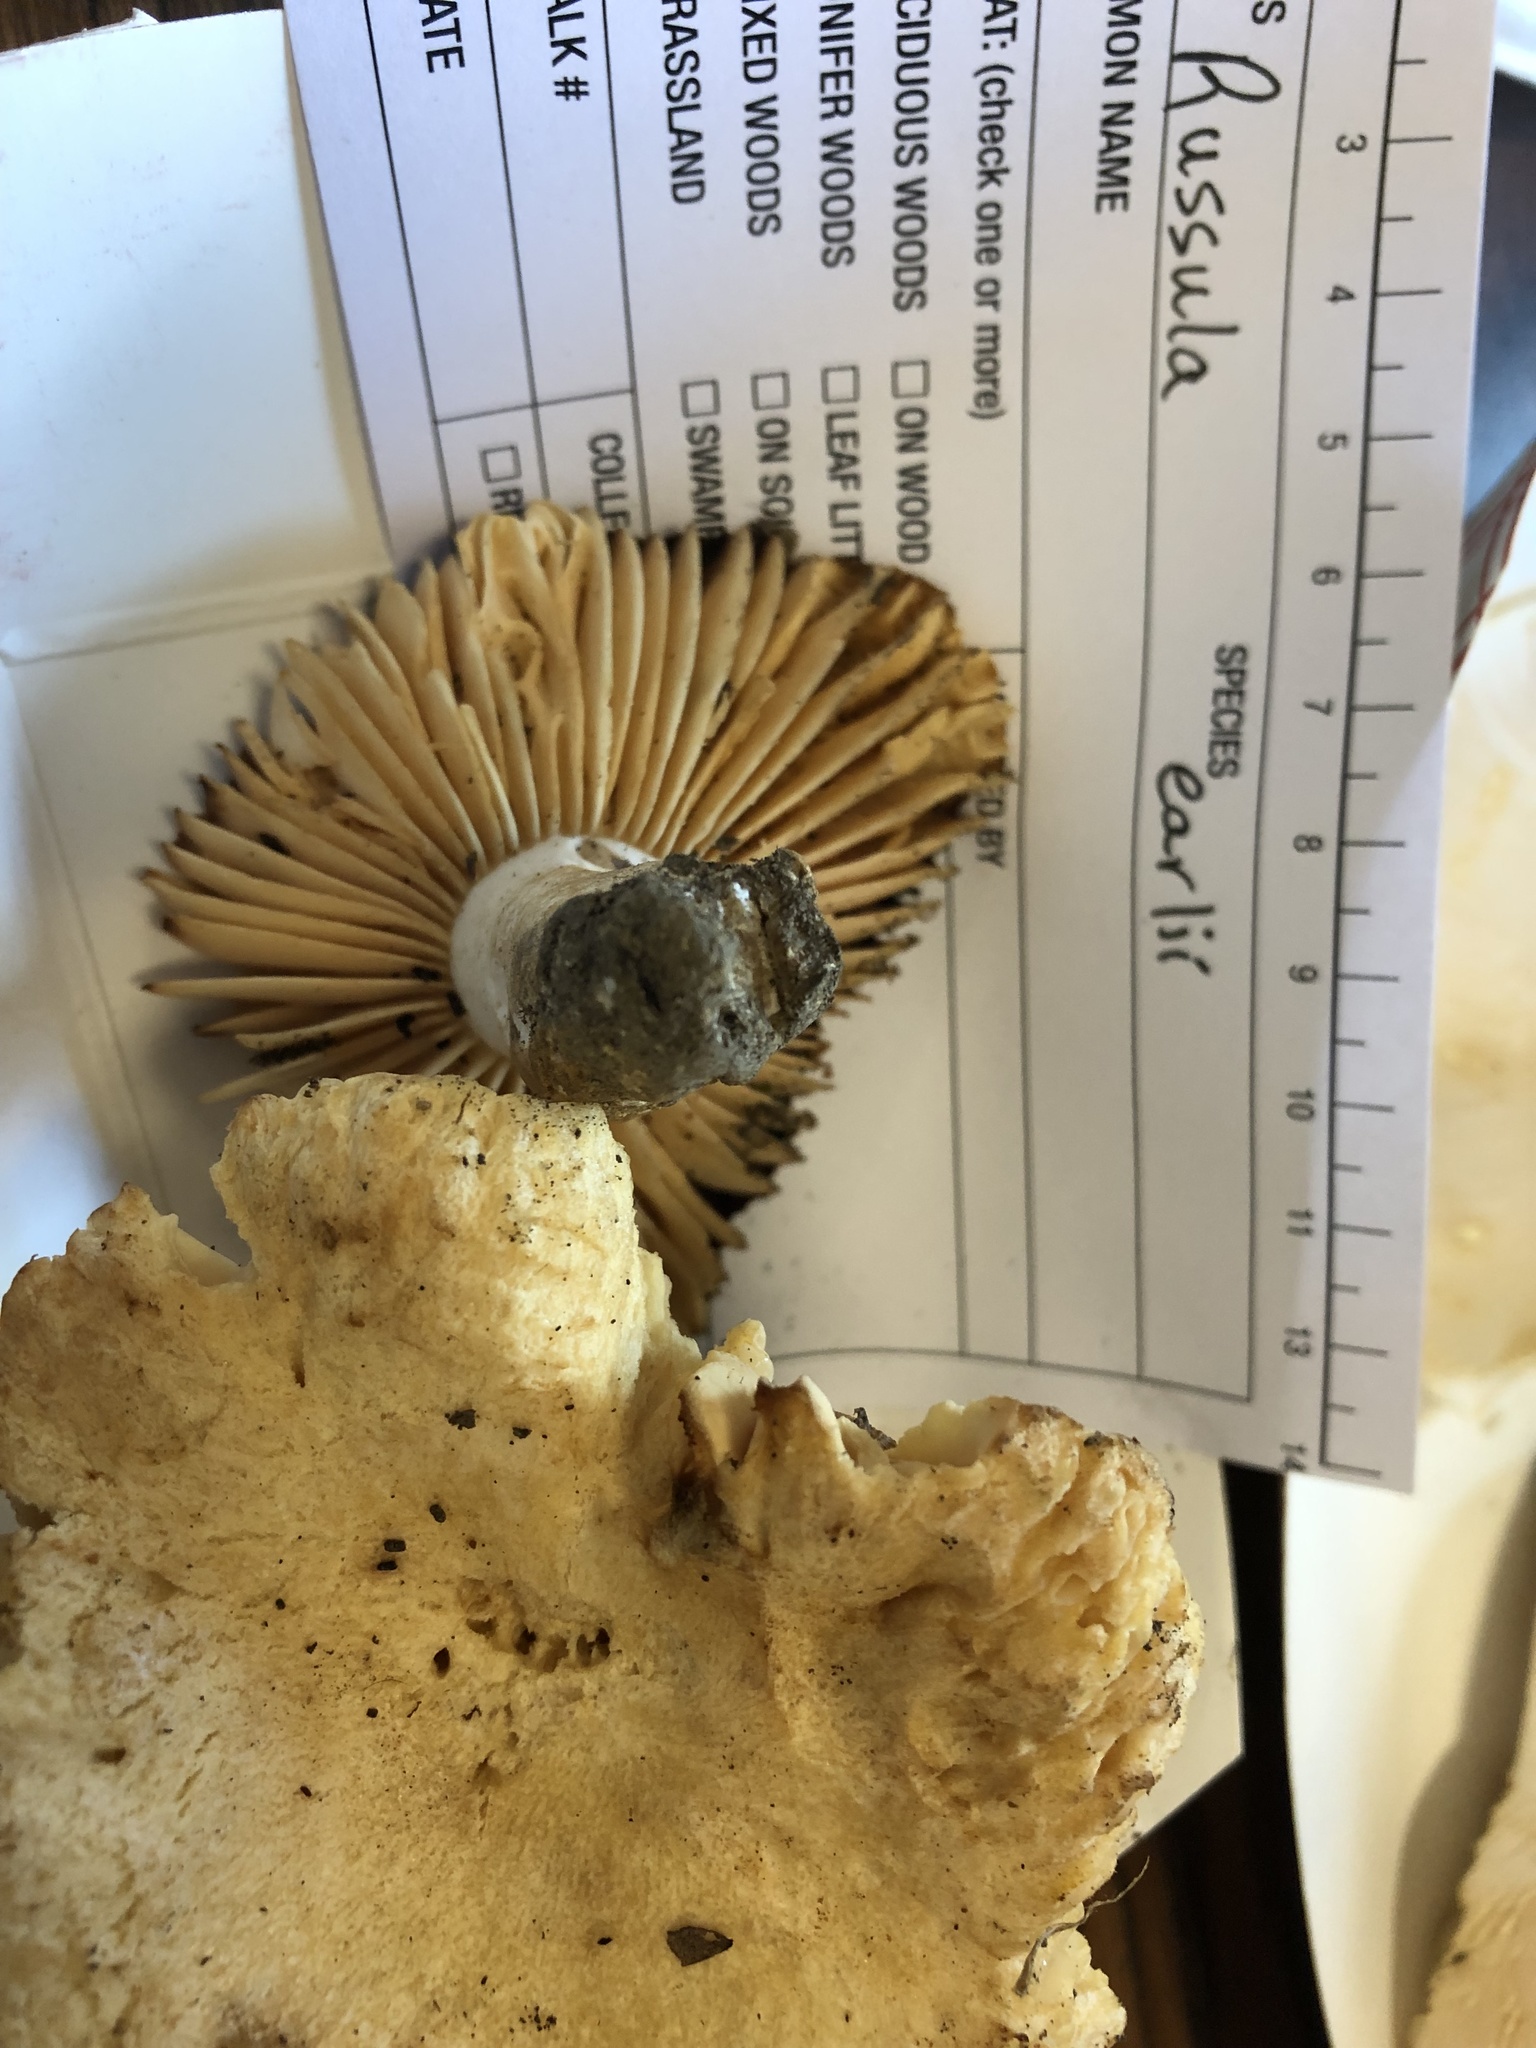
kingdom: Fungi
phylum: Basidiomycota
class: Agaricomycetes
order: Russulales
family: Russulaceae
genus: Russula
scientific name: Russula earlei
